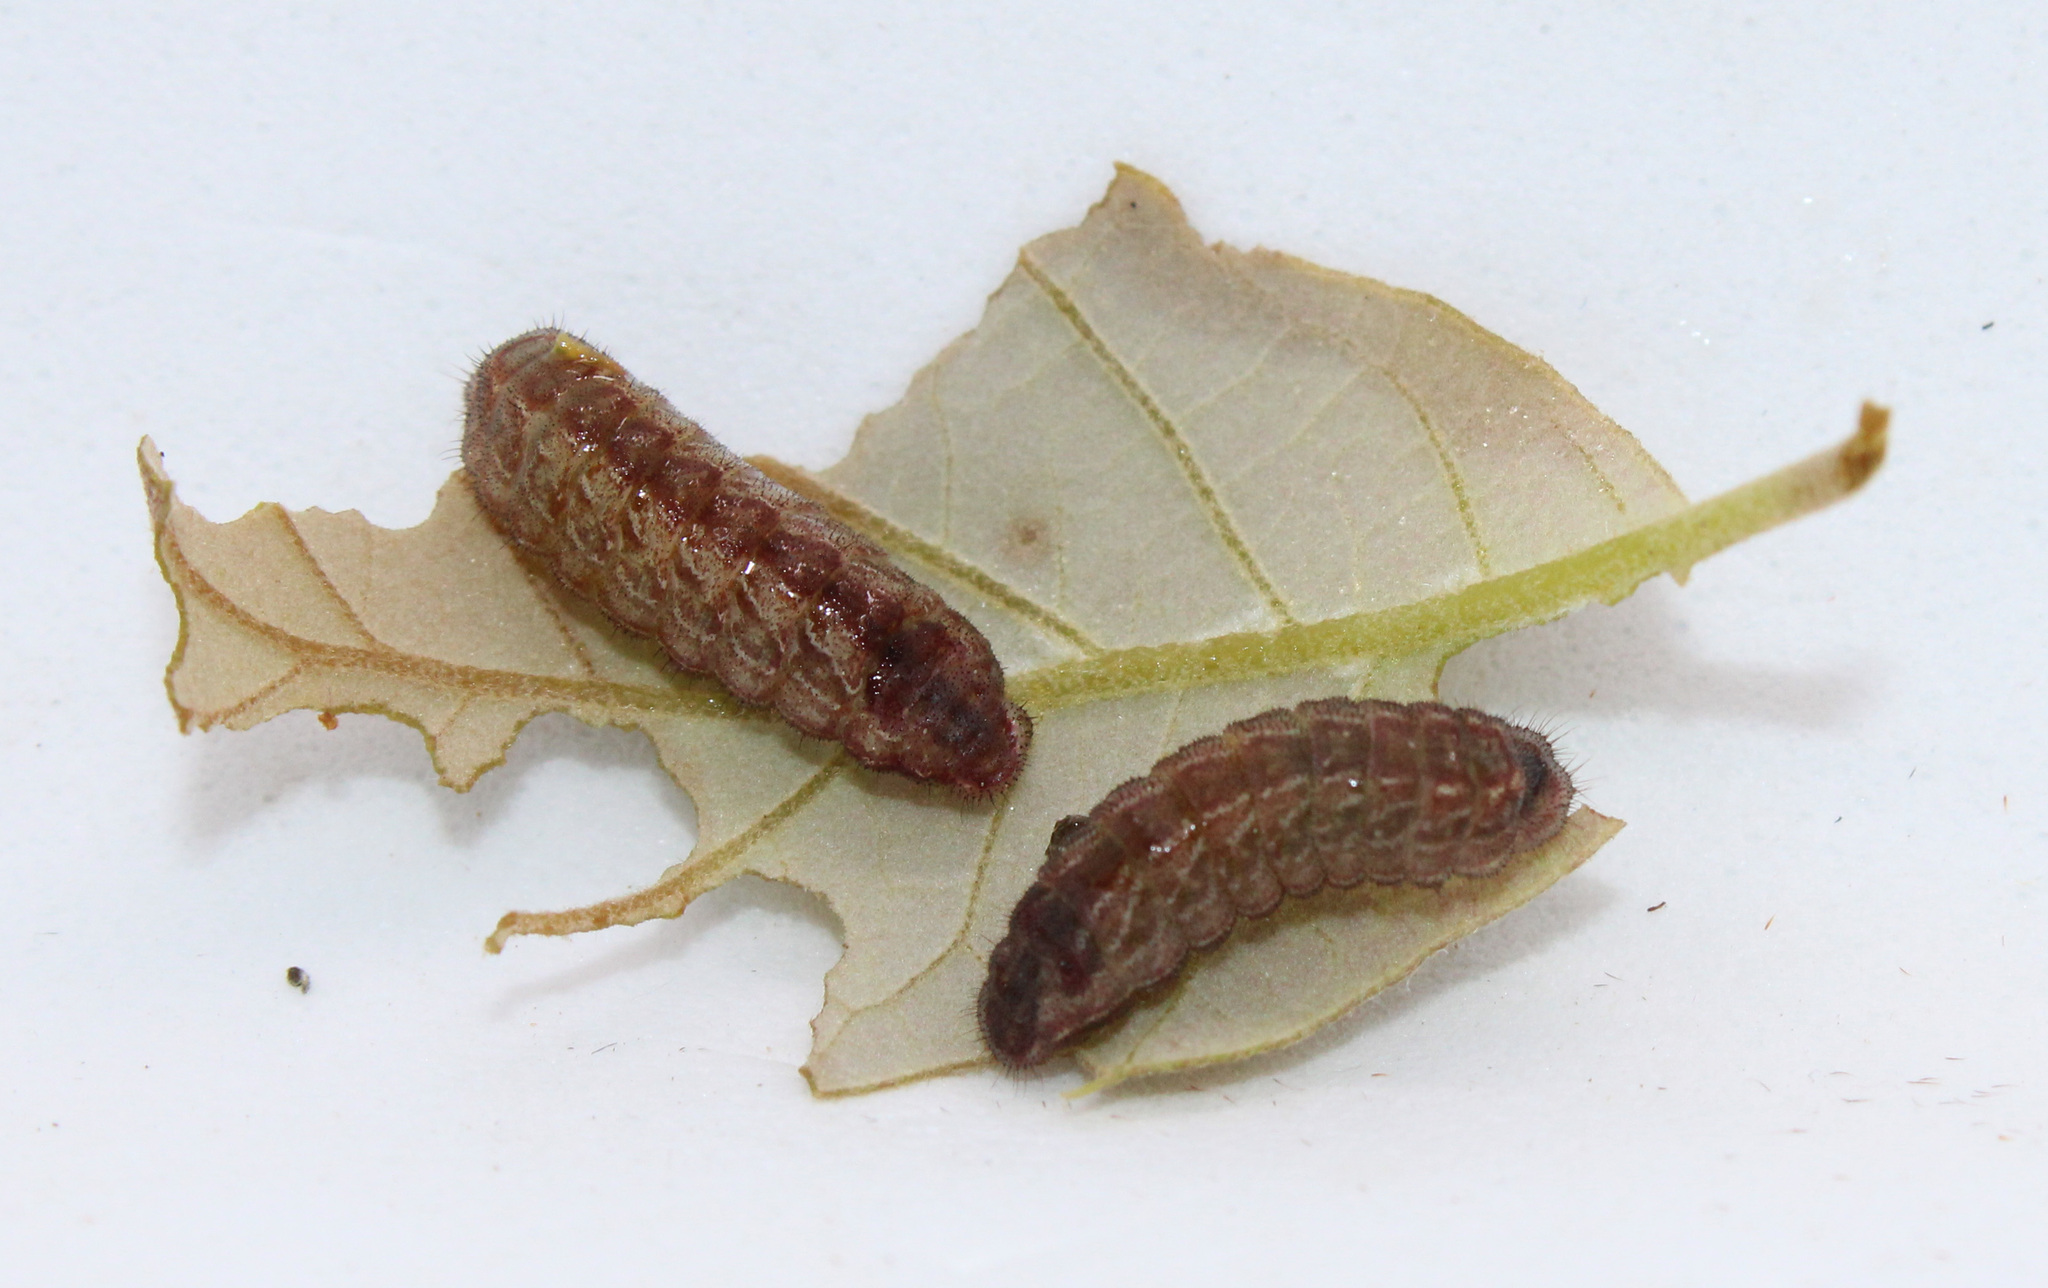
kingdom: Animalia
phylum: Arthropoda
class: Insecta
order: Lepidoptera
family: Lycaenidae
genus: Satyrium
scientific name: Satyrium edwardsii
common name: Edwards' hairstreak
